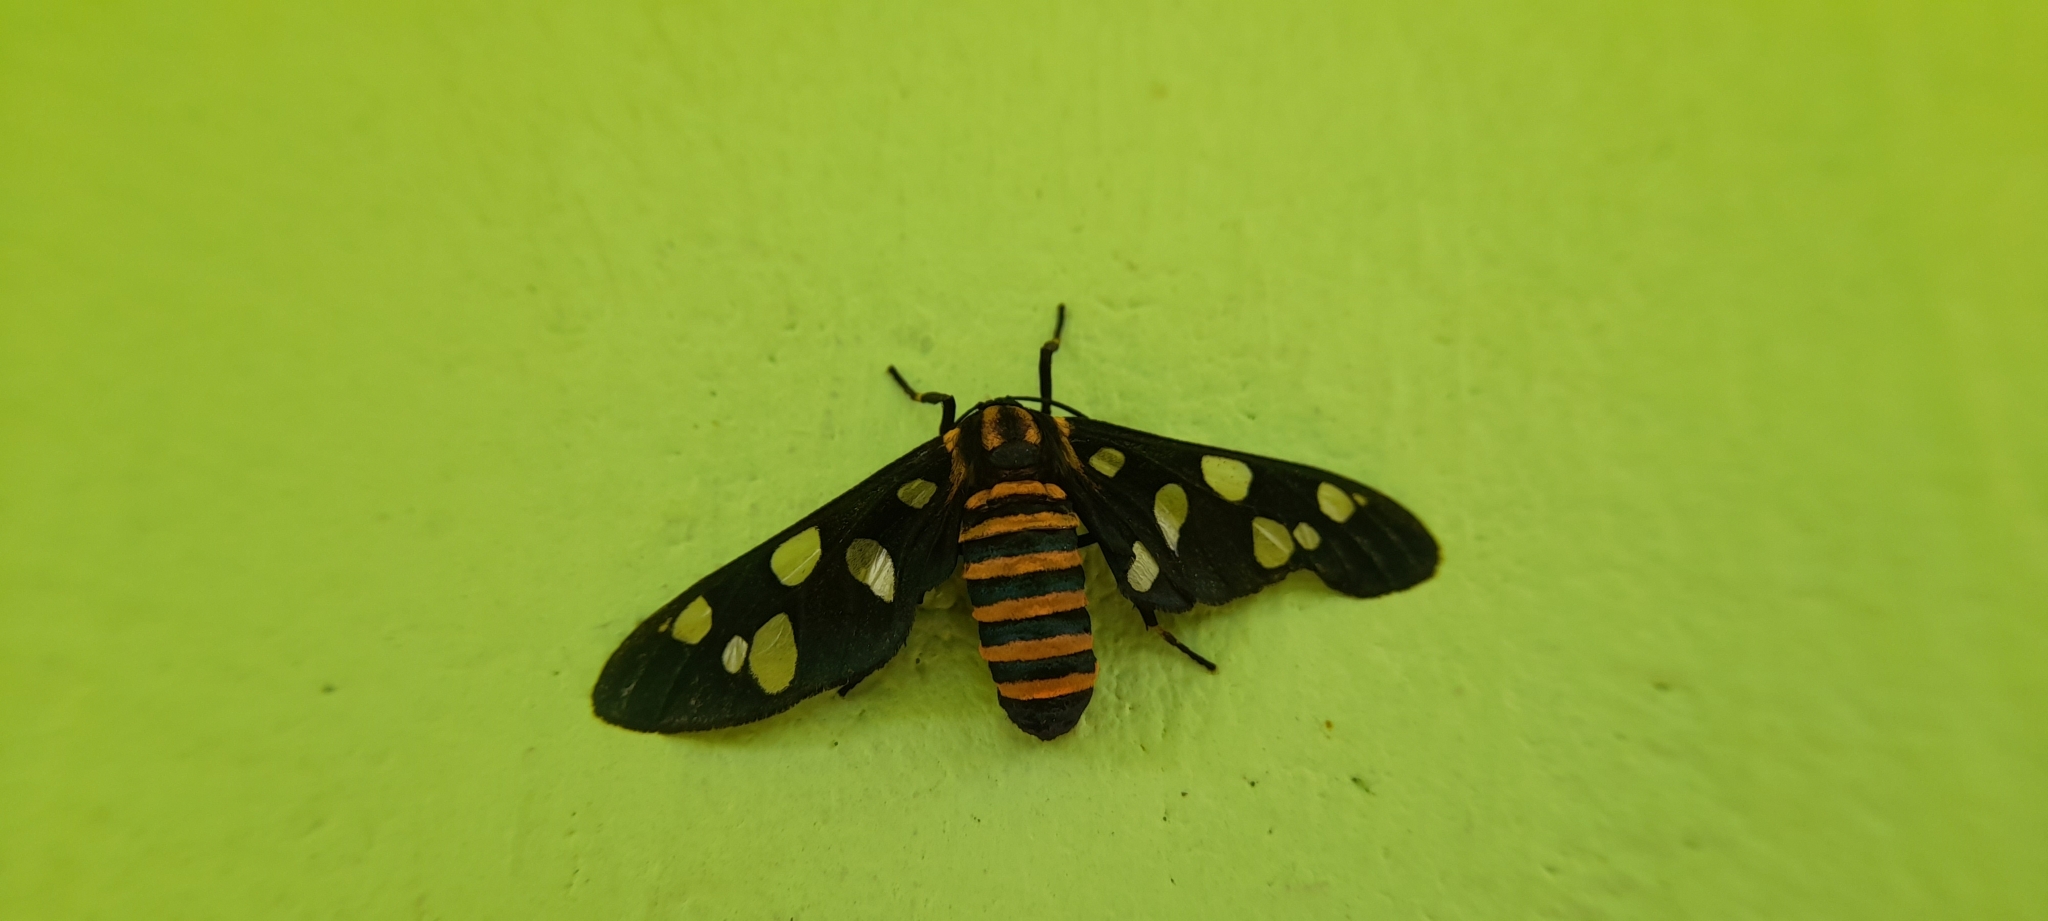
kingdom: Animalia
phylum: Arthropoda
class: Insecta
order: Lepidoptera
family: Erebidae
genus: Amata
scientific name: Amata passalis
